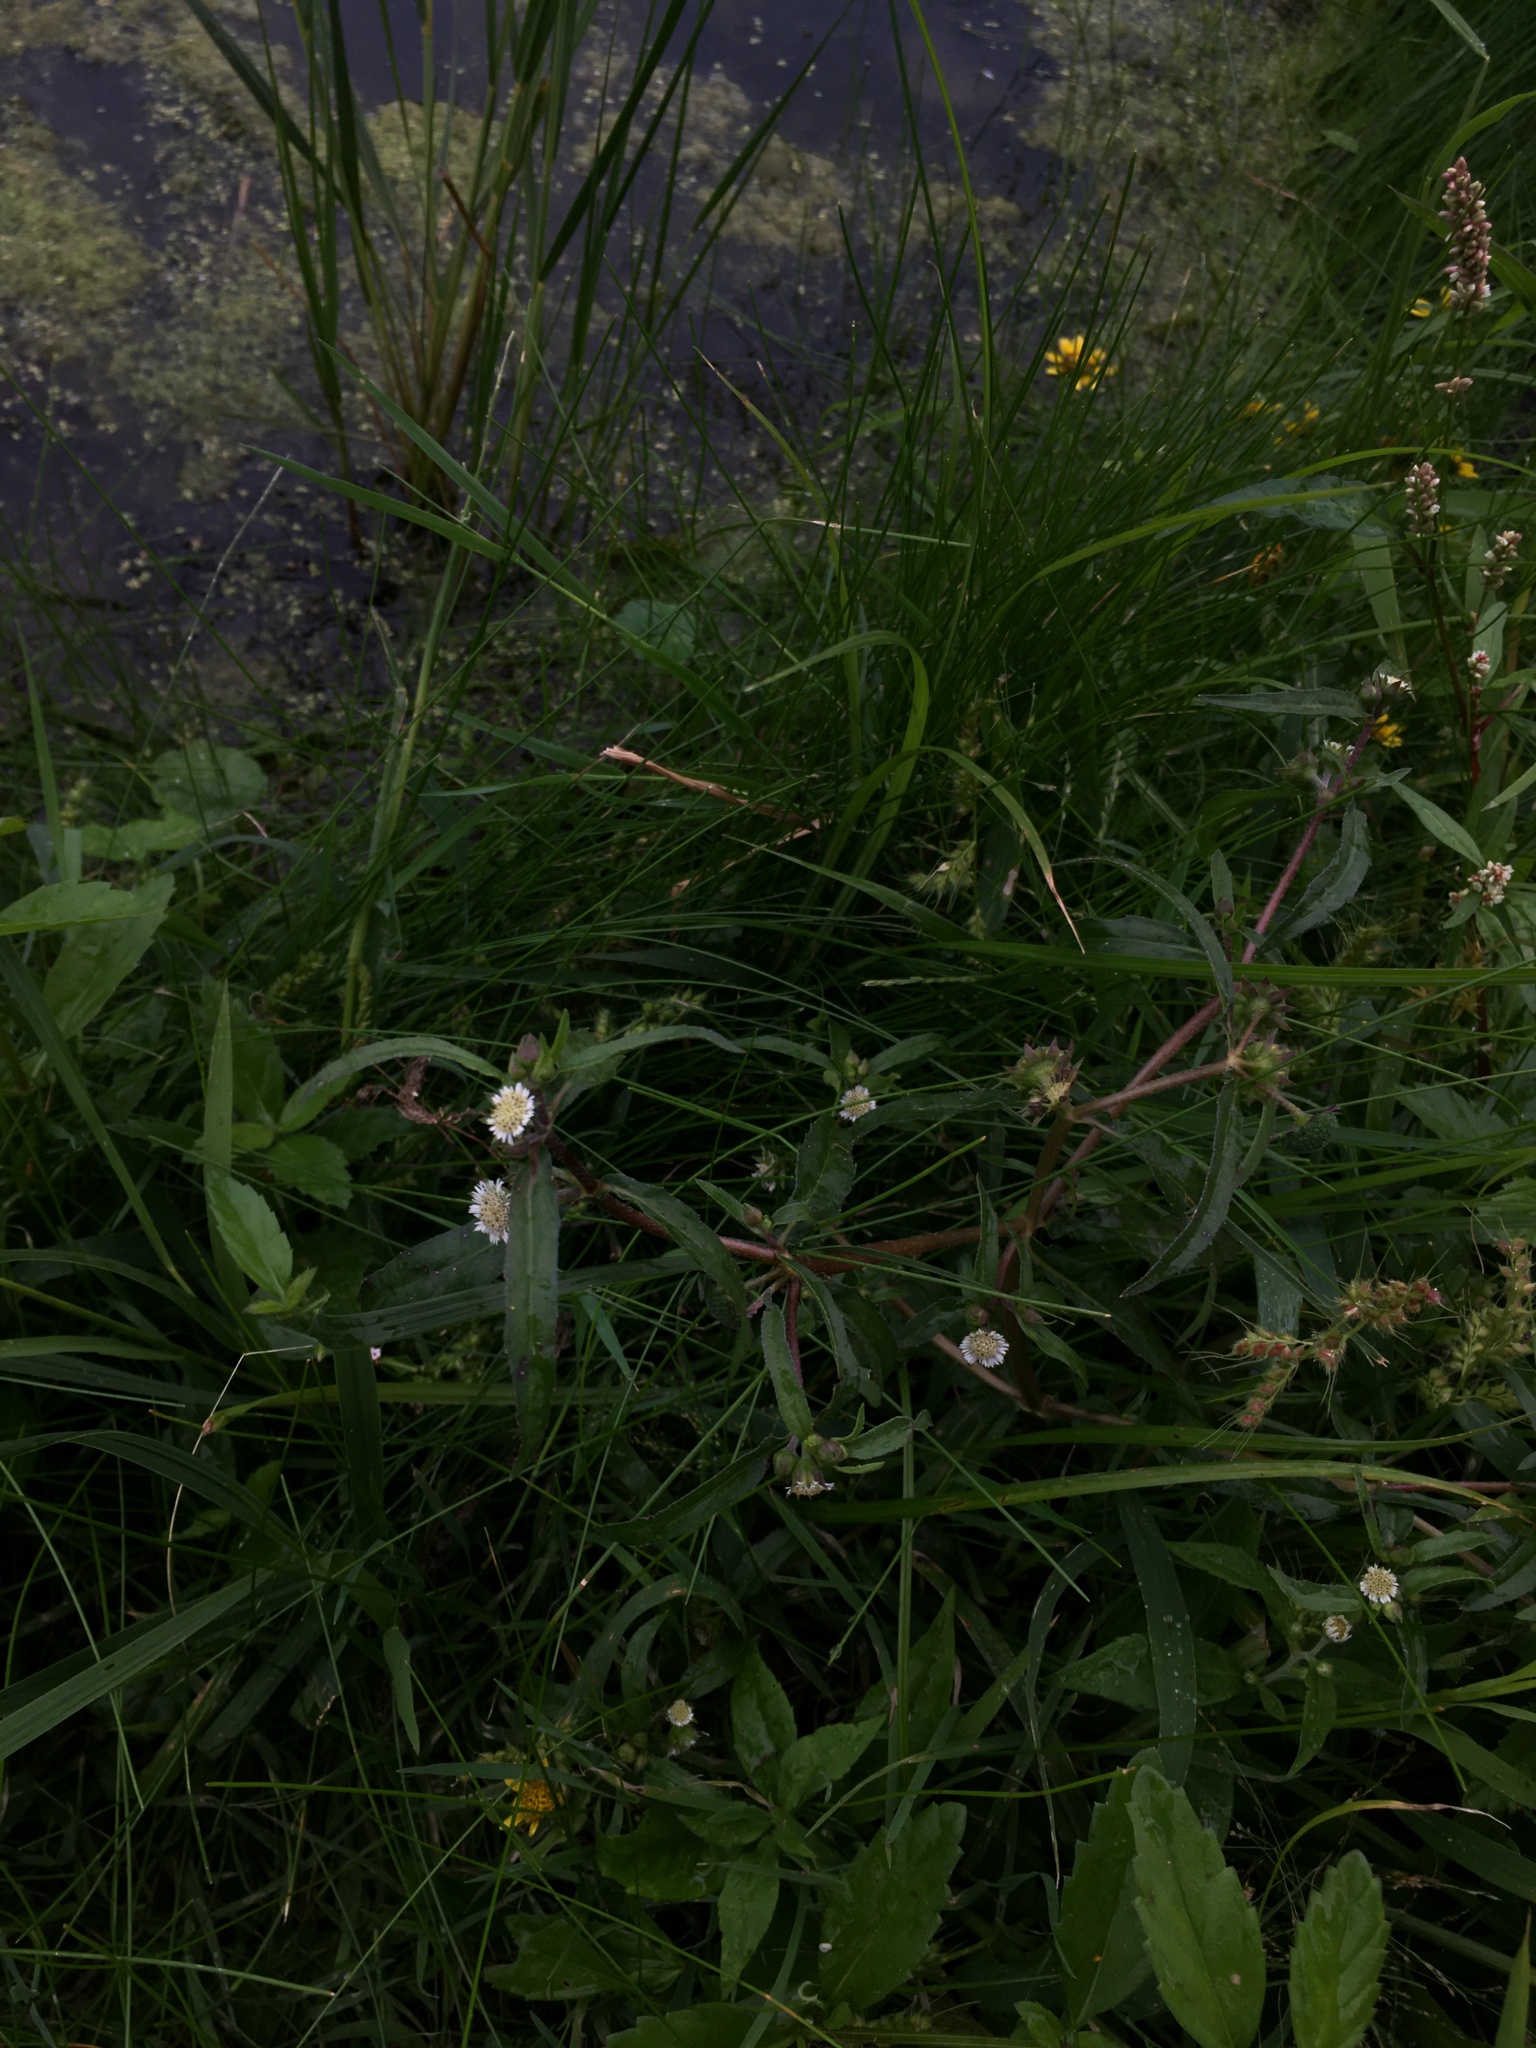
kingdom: Plantae
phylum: Tracheophyta
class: Magnoliopsida
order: Asterales
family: Asteraceae
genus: Eclipta
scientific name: Eclipta prostrata
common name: False daisy
